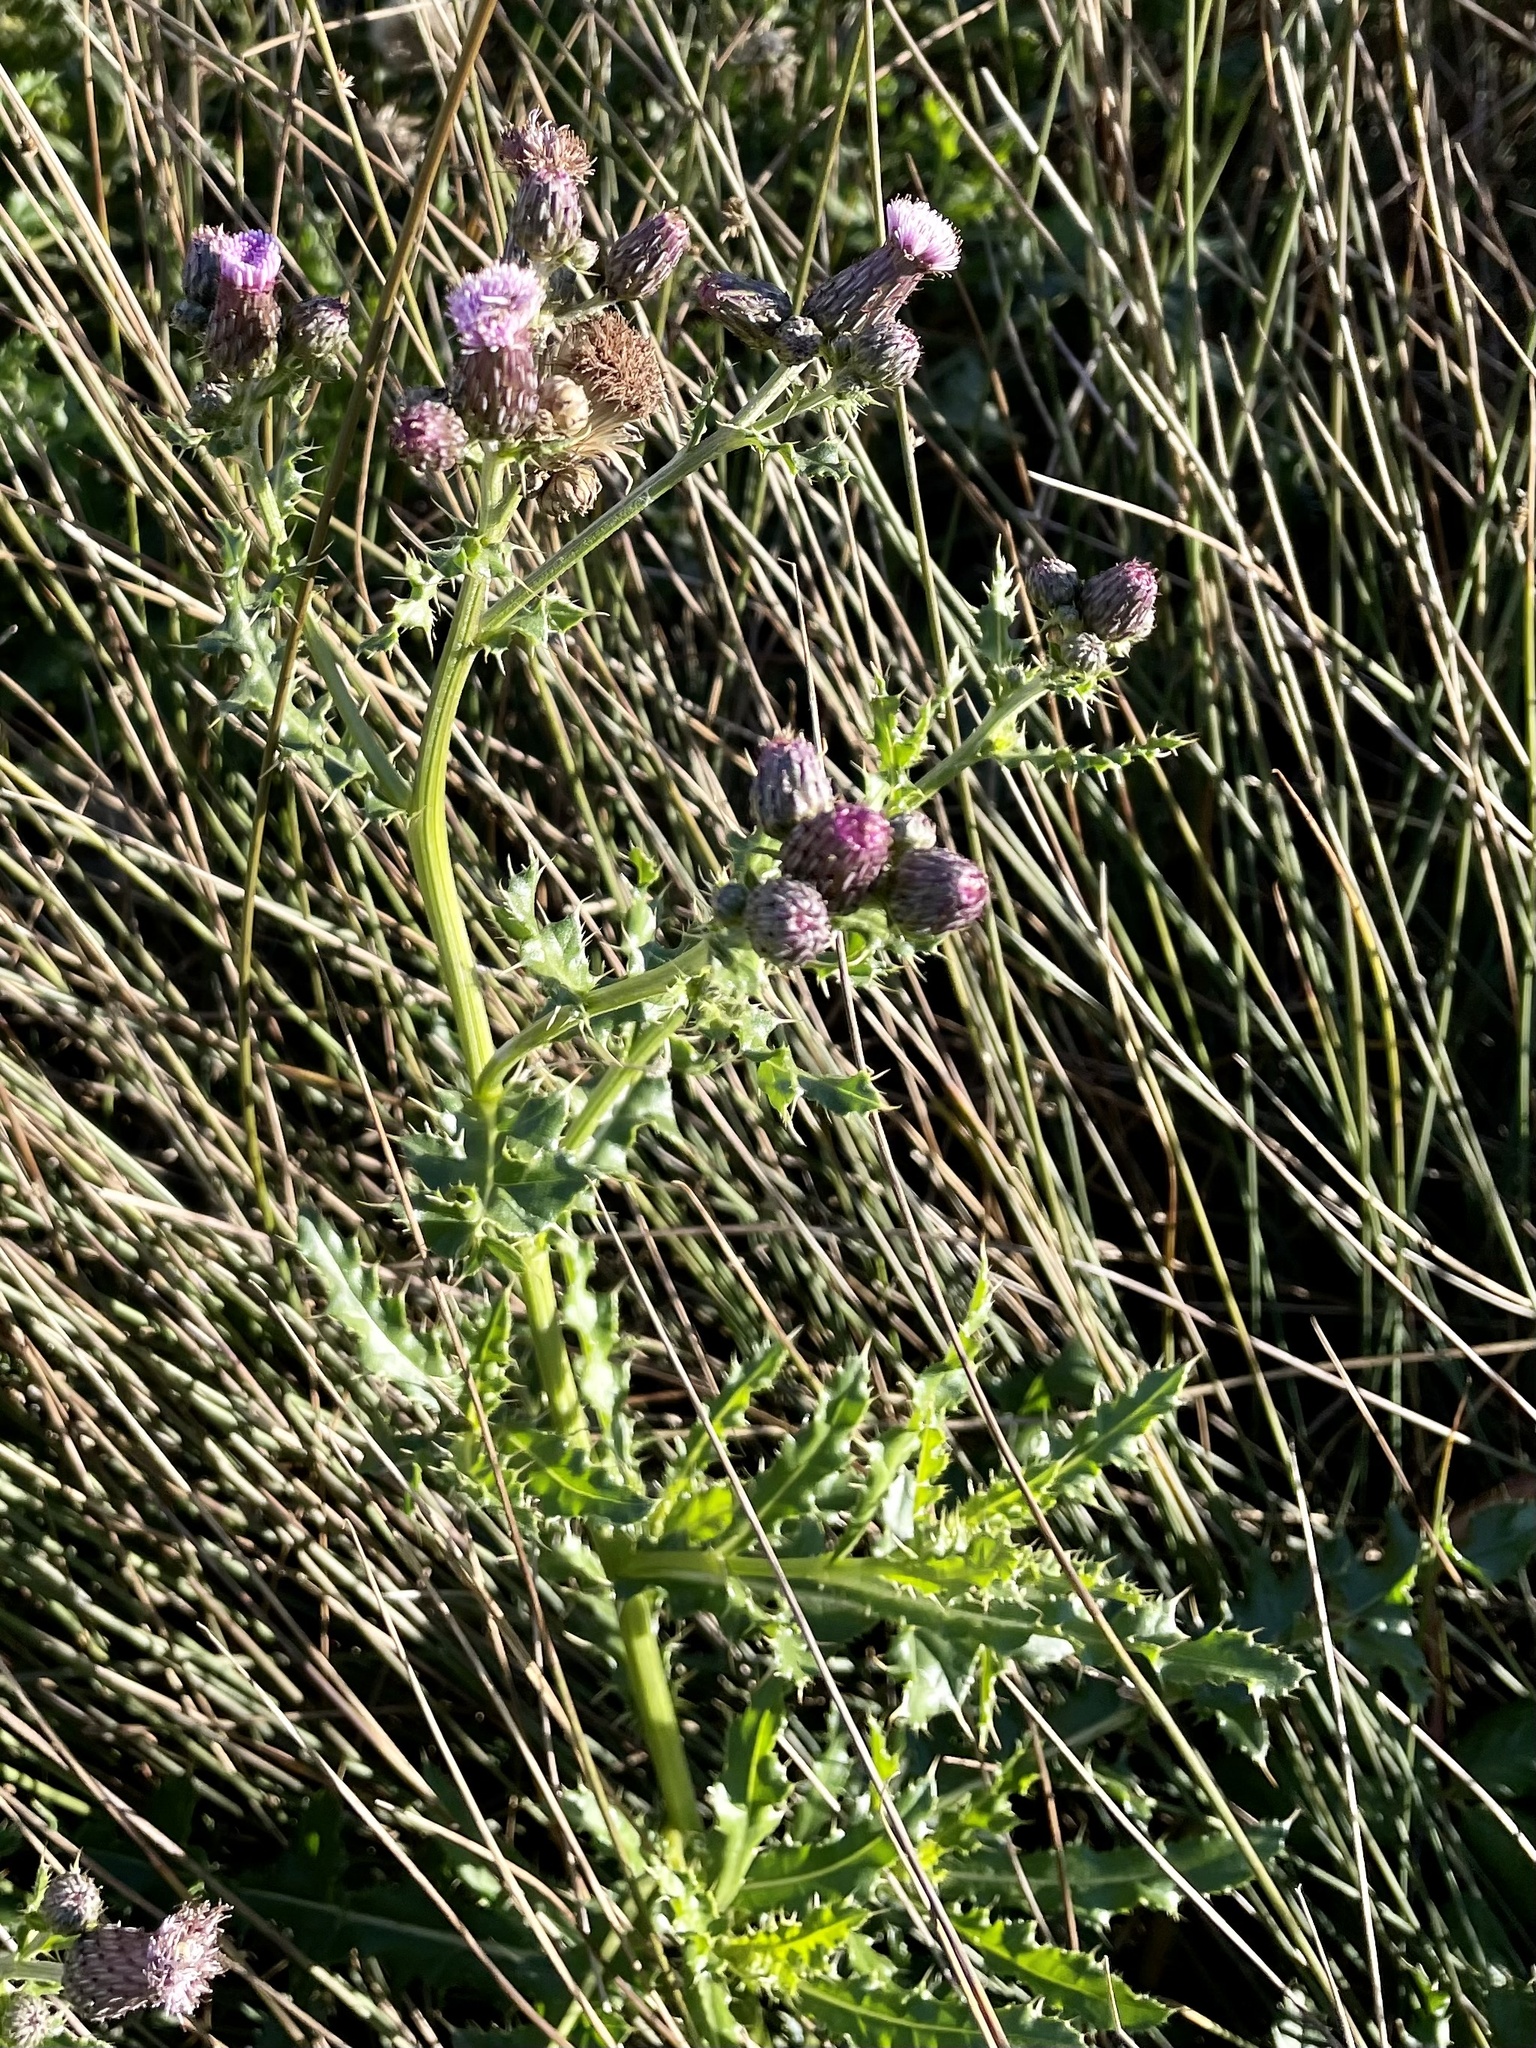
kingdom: Plantae
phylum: Tracheophyta
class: Magnoliopsida
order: Asterales
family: Asteraceae
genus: Cirsium
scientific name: Cirsium arvense
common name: Creeping thistle
